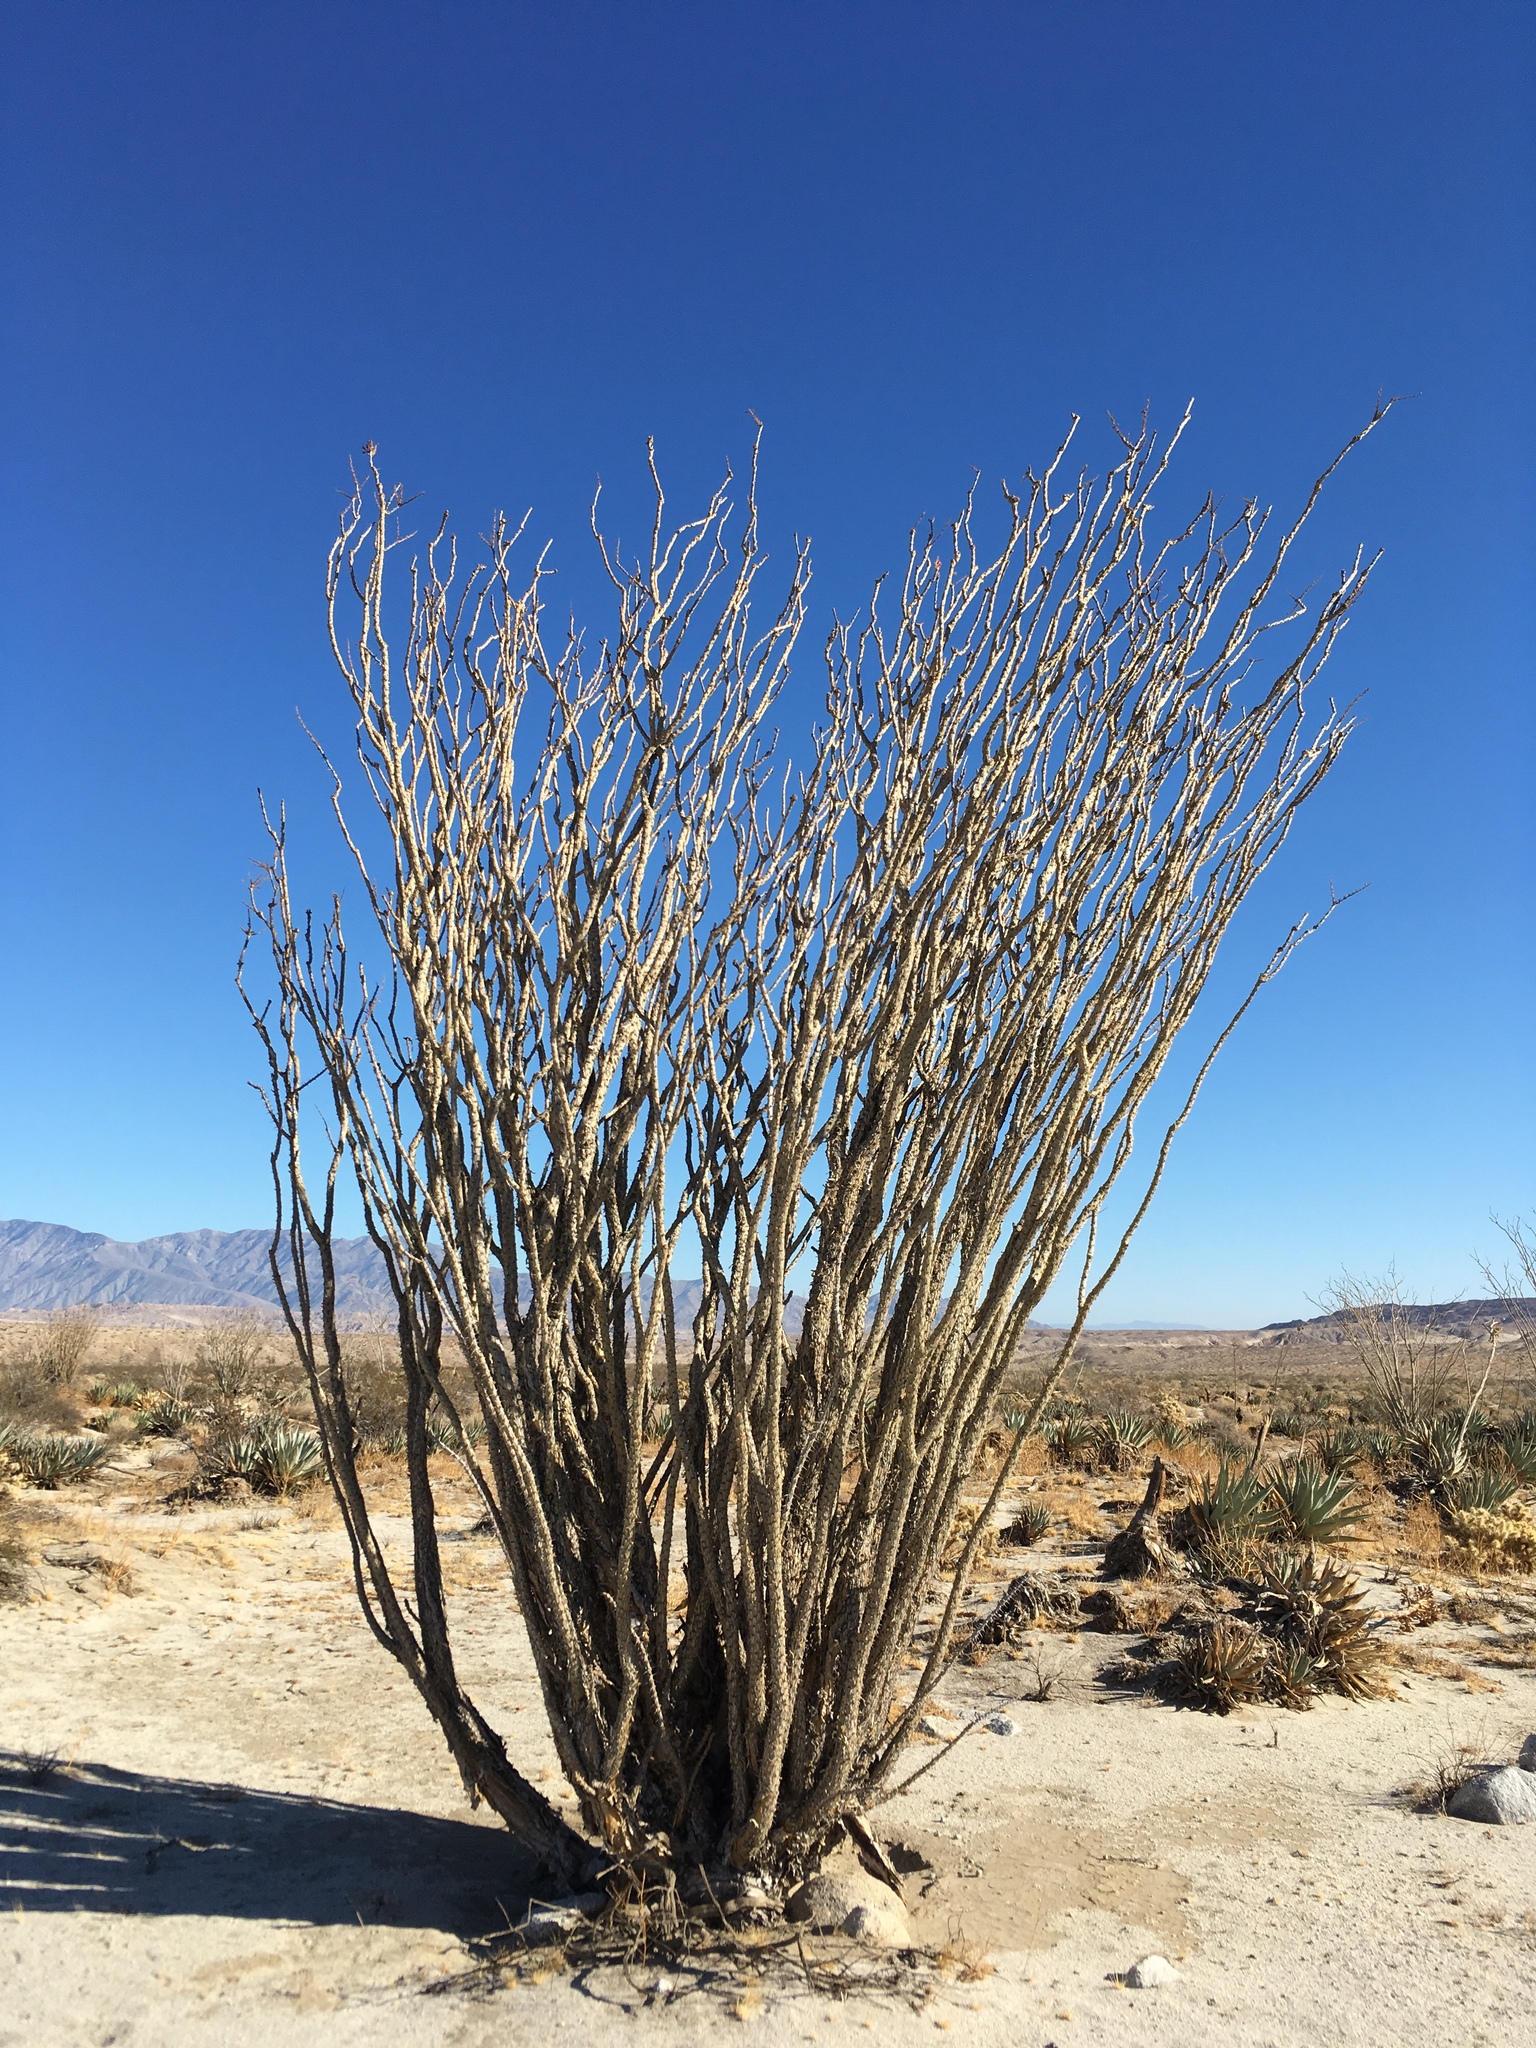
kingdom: Plantae
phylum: Tracheophyta
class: Magnoliopsida
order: Ericales
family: Fouquieriaceae
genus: Fouquieria
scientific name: Fouquieria splendens
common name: Vine-cactus
